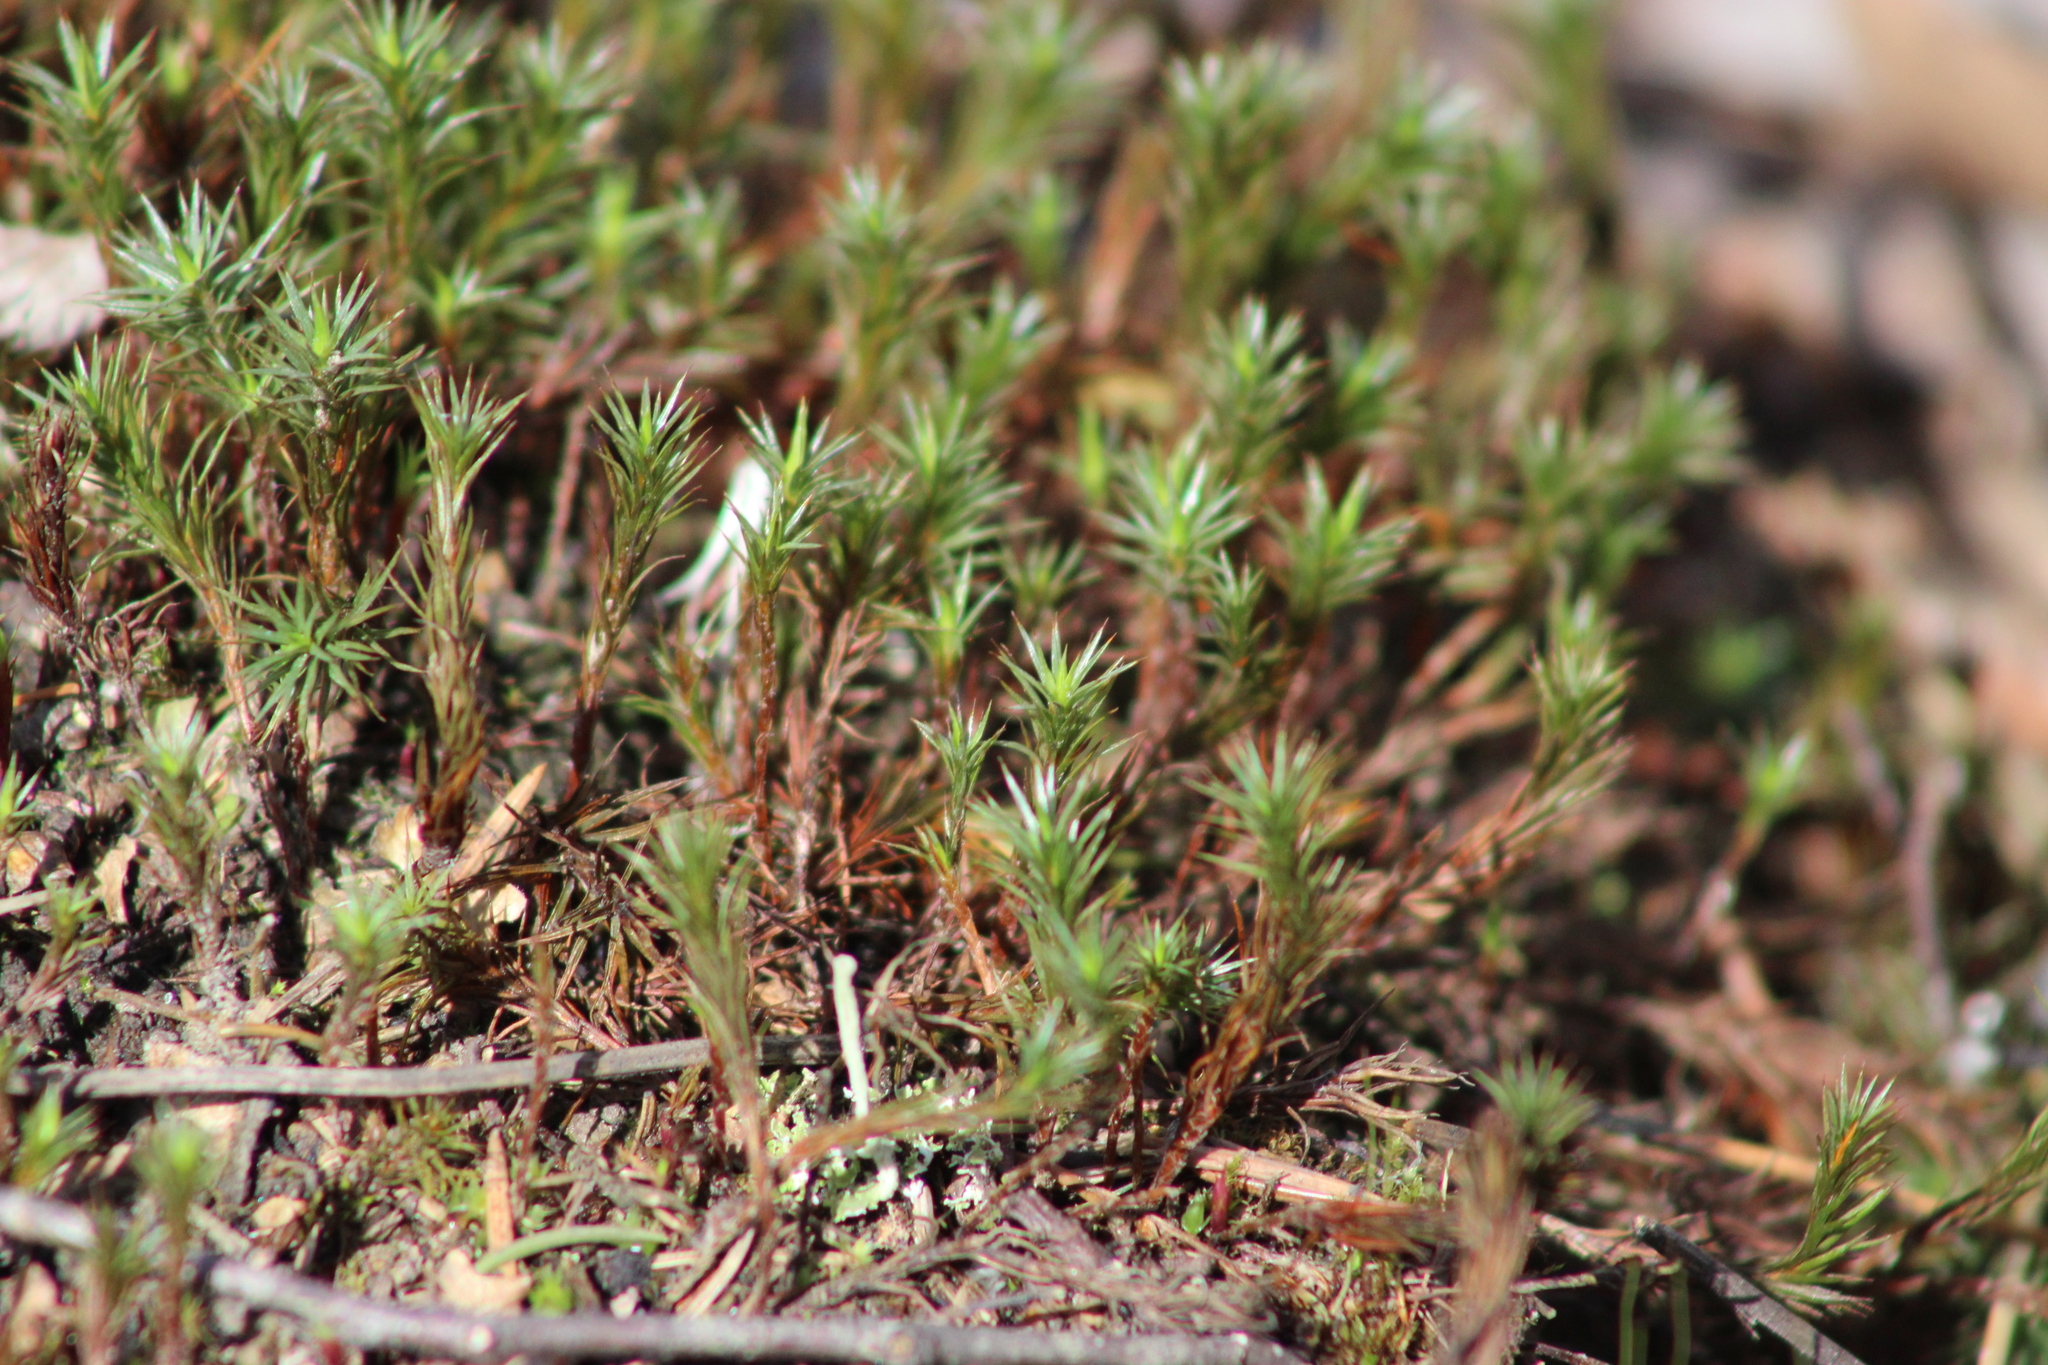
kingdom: Plantae
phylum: Bryophyta
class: Polytrichopsida
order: Polytrichales
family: Polytrichaceae
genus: Polytrichum
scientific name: Polytrichum juniperinum
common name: Juniper haircap moss
